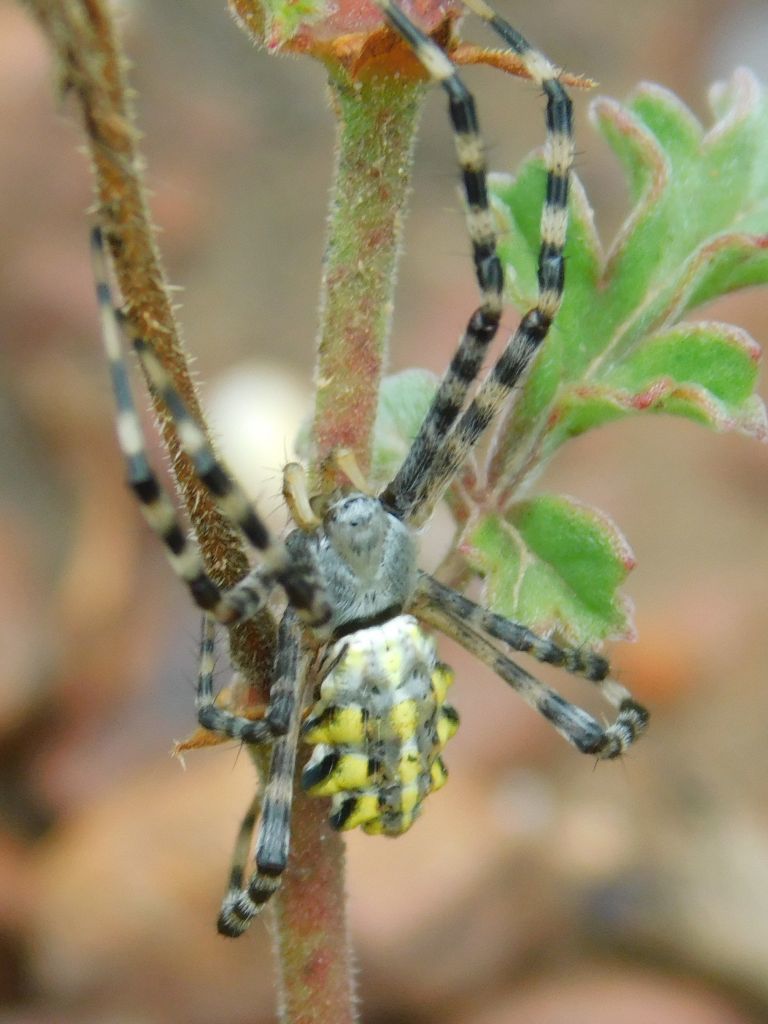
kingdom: Animalia
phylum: Arthropoda
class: Arachnida
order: Araneae
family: Araneidae
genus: Argiope
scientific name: Argiope australis
